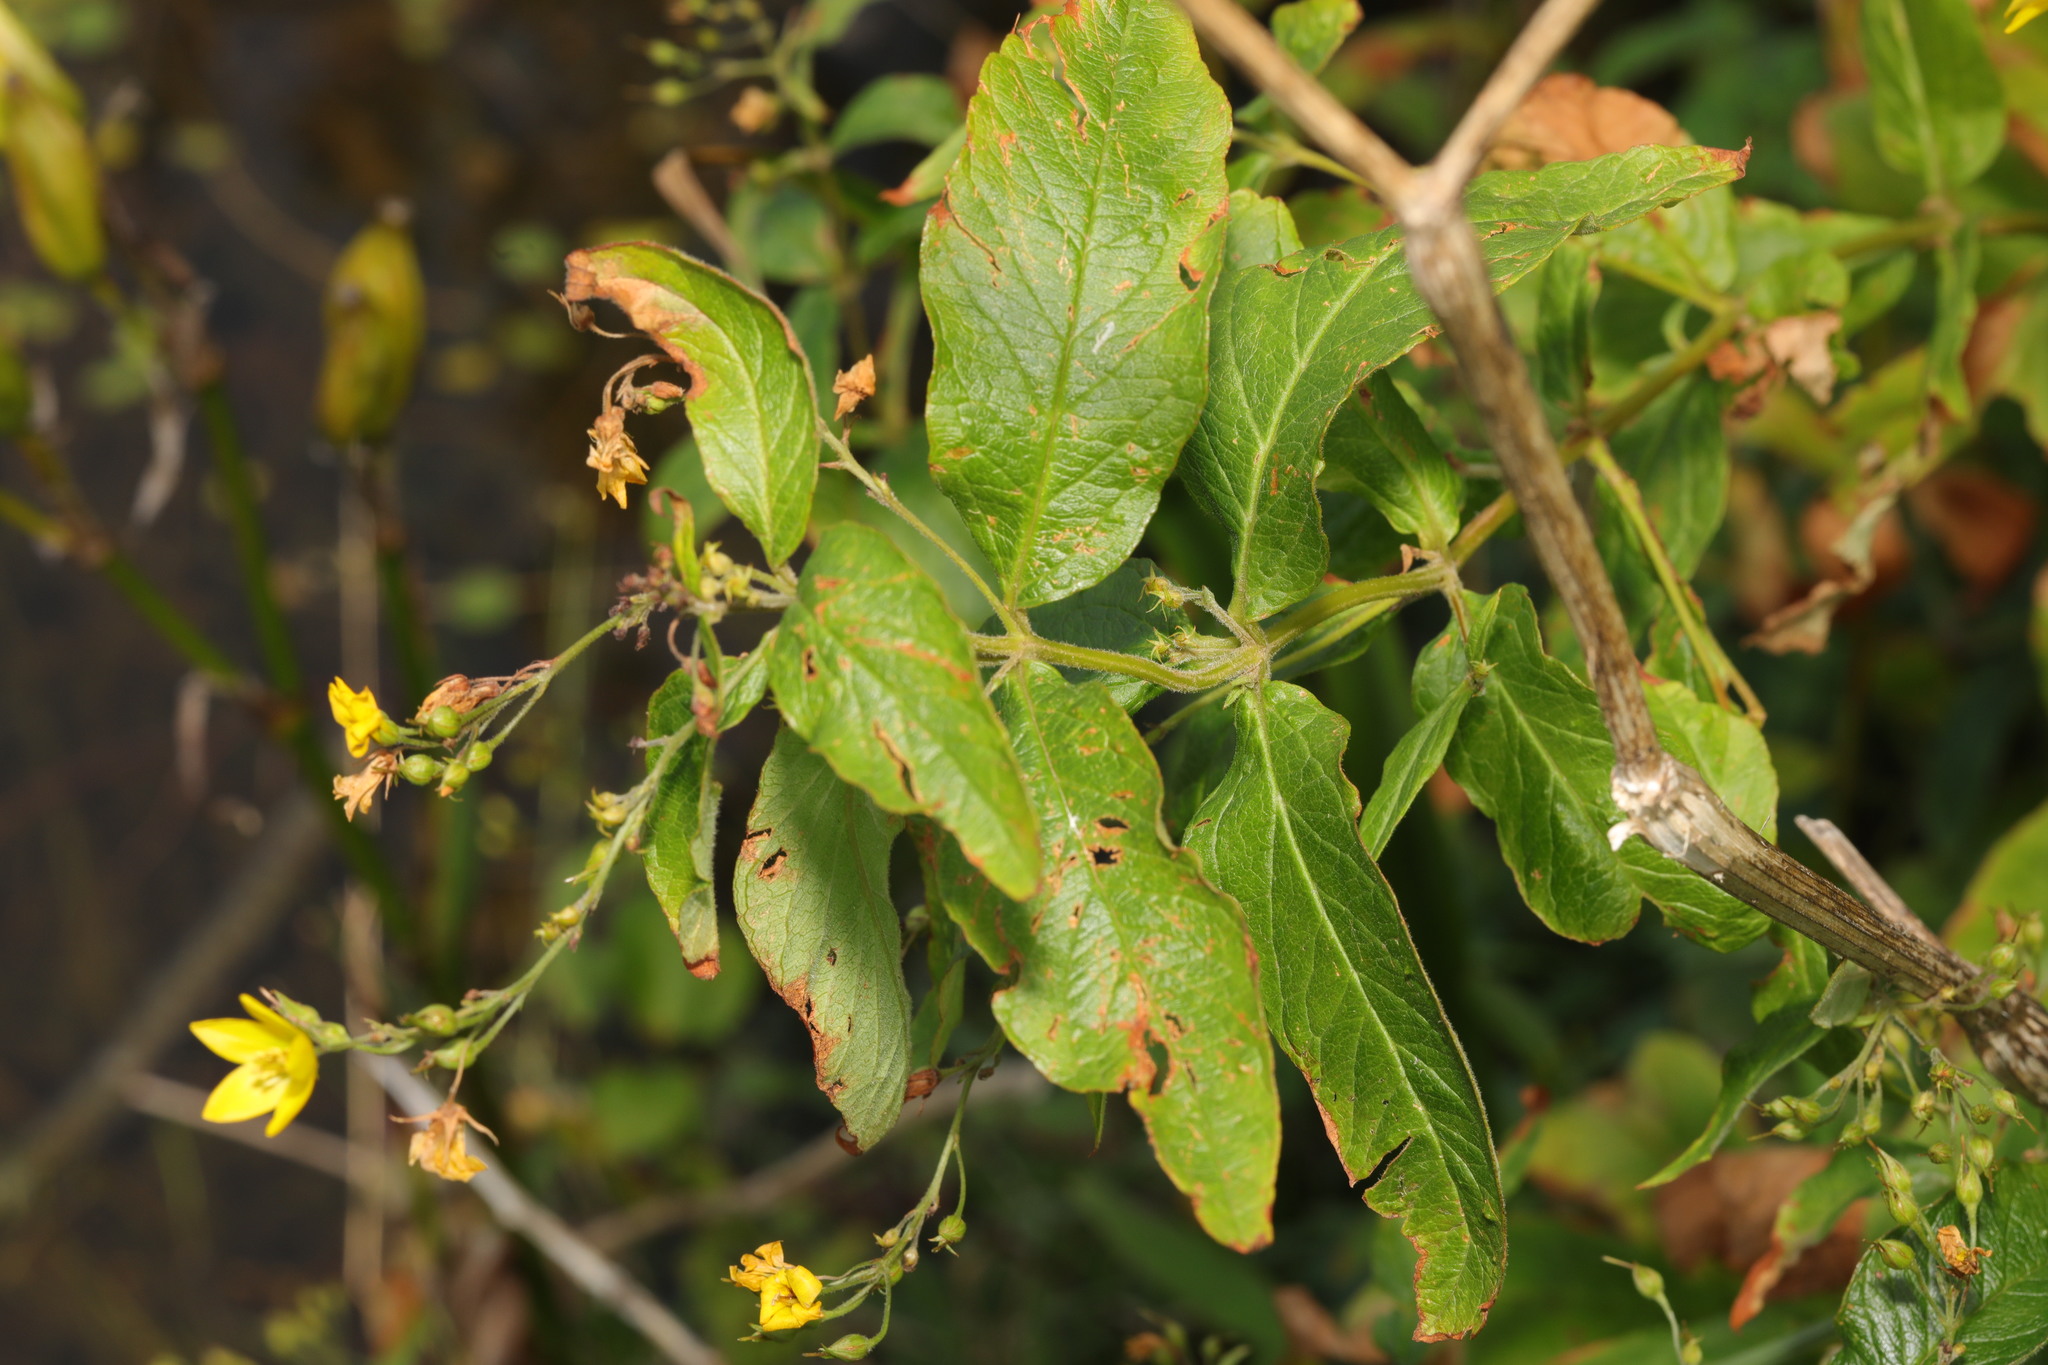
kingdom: Plantae
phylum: Tracheophyta
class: Magnoliopsida
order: Ericales
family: Primulaceae
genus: Lysimachia
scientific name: Lysimachia vulgaris
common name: Yellow loosestrife
